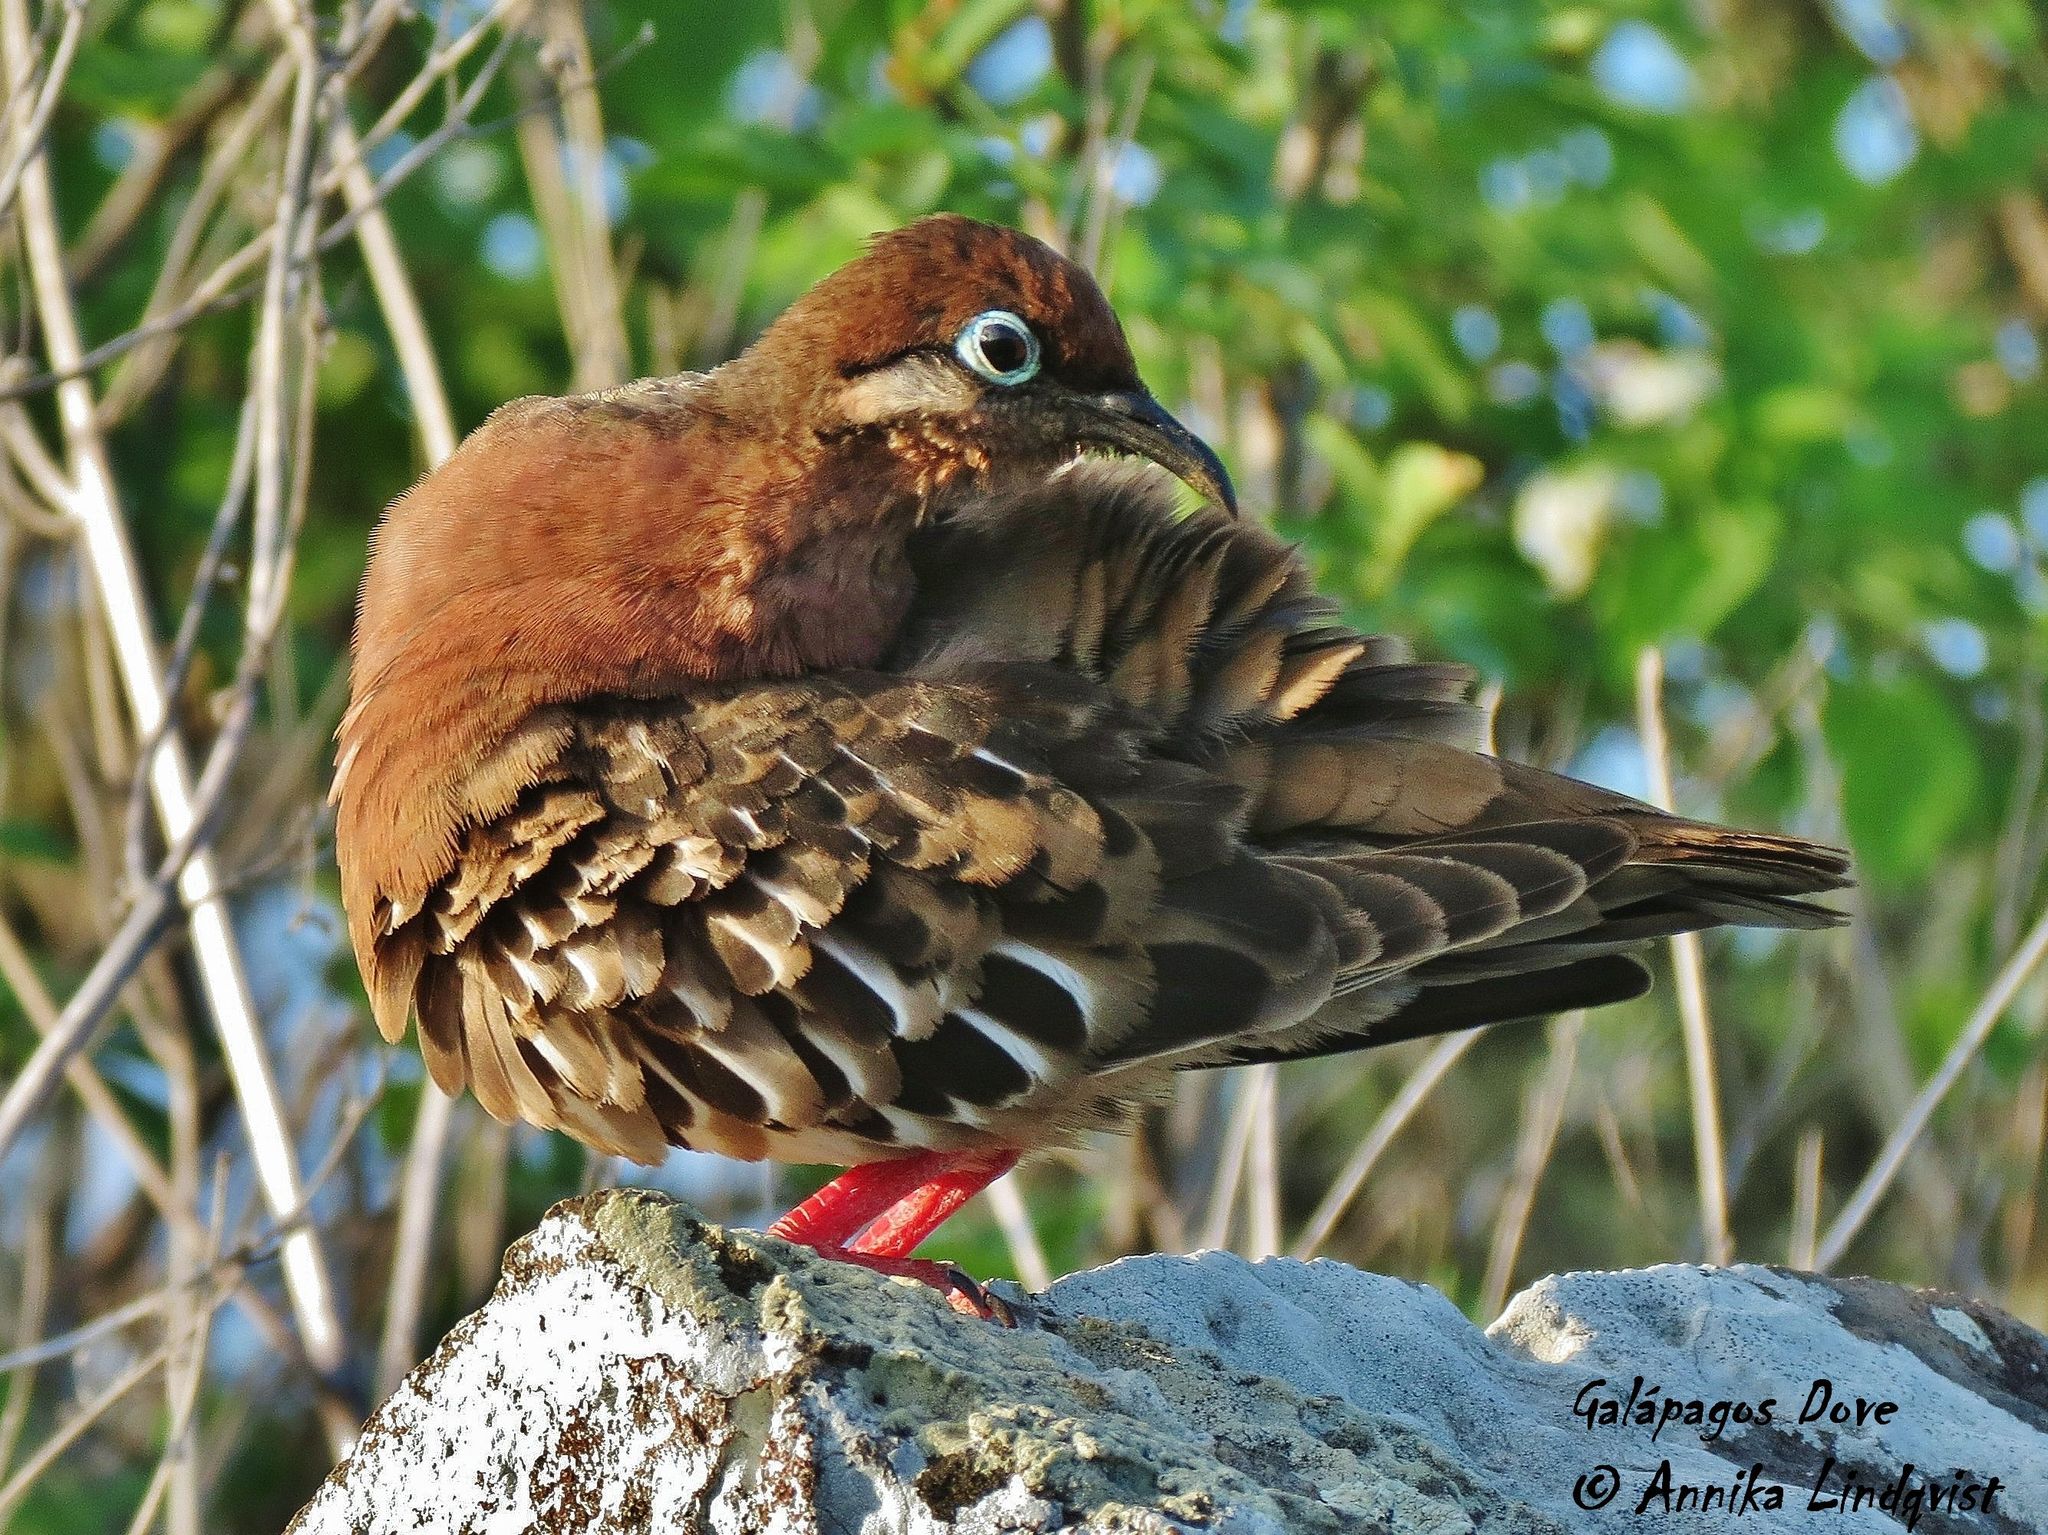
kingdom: Animalia
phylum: Chordata
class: Aves
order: Columbiformes
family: Columbidae
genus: Zenaida
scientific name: Zenaida galapagoensis
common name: Galapagos dove
